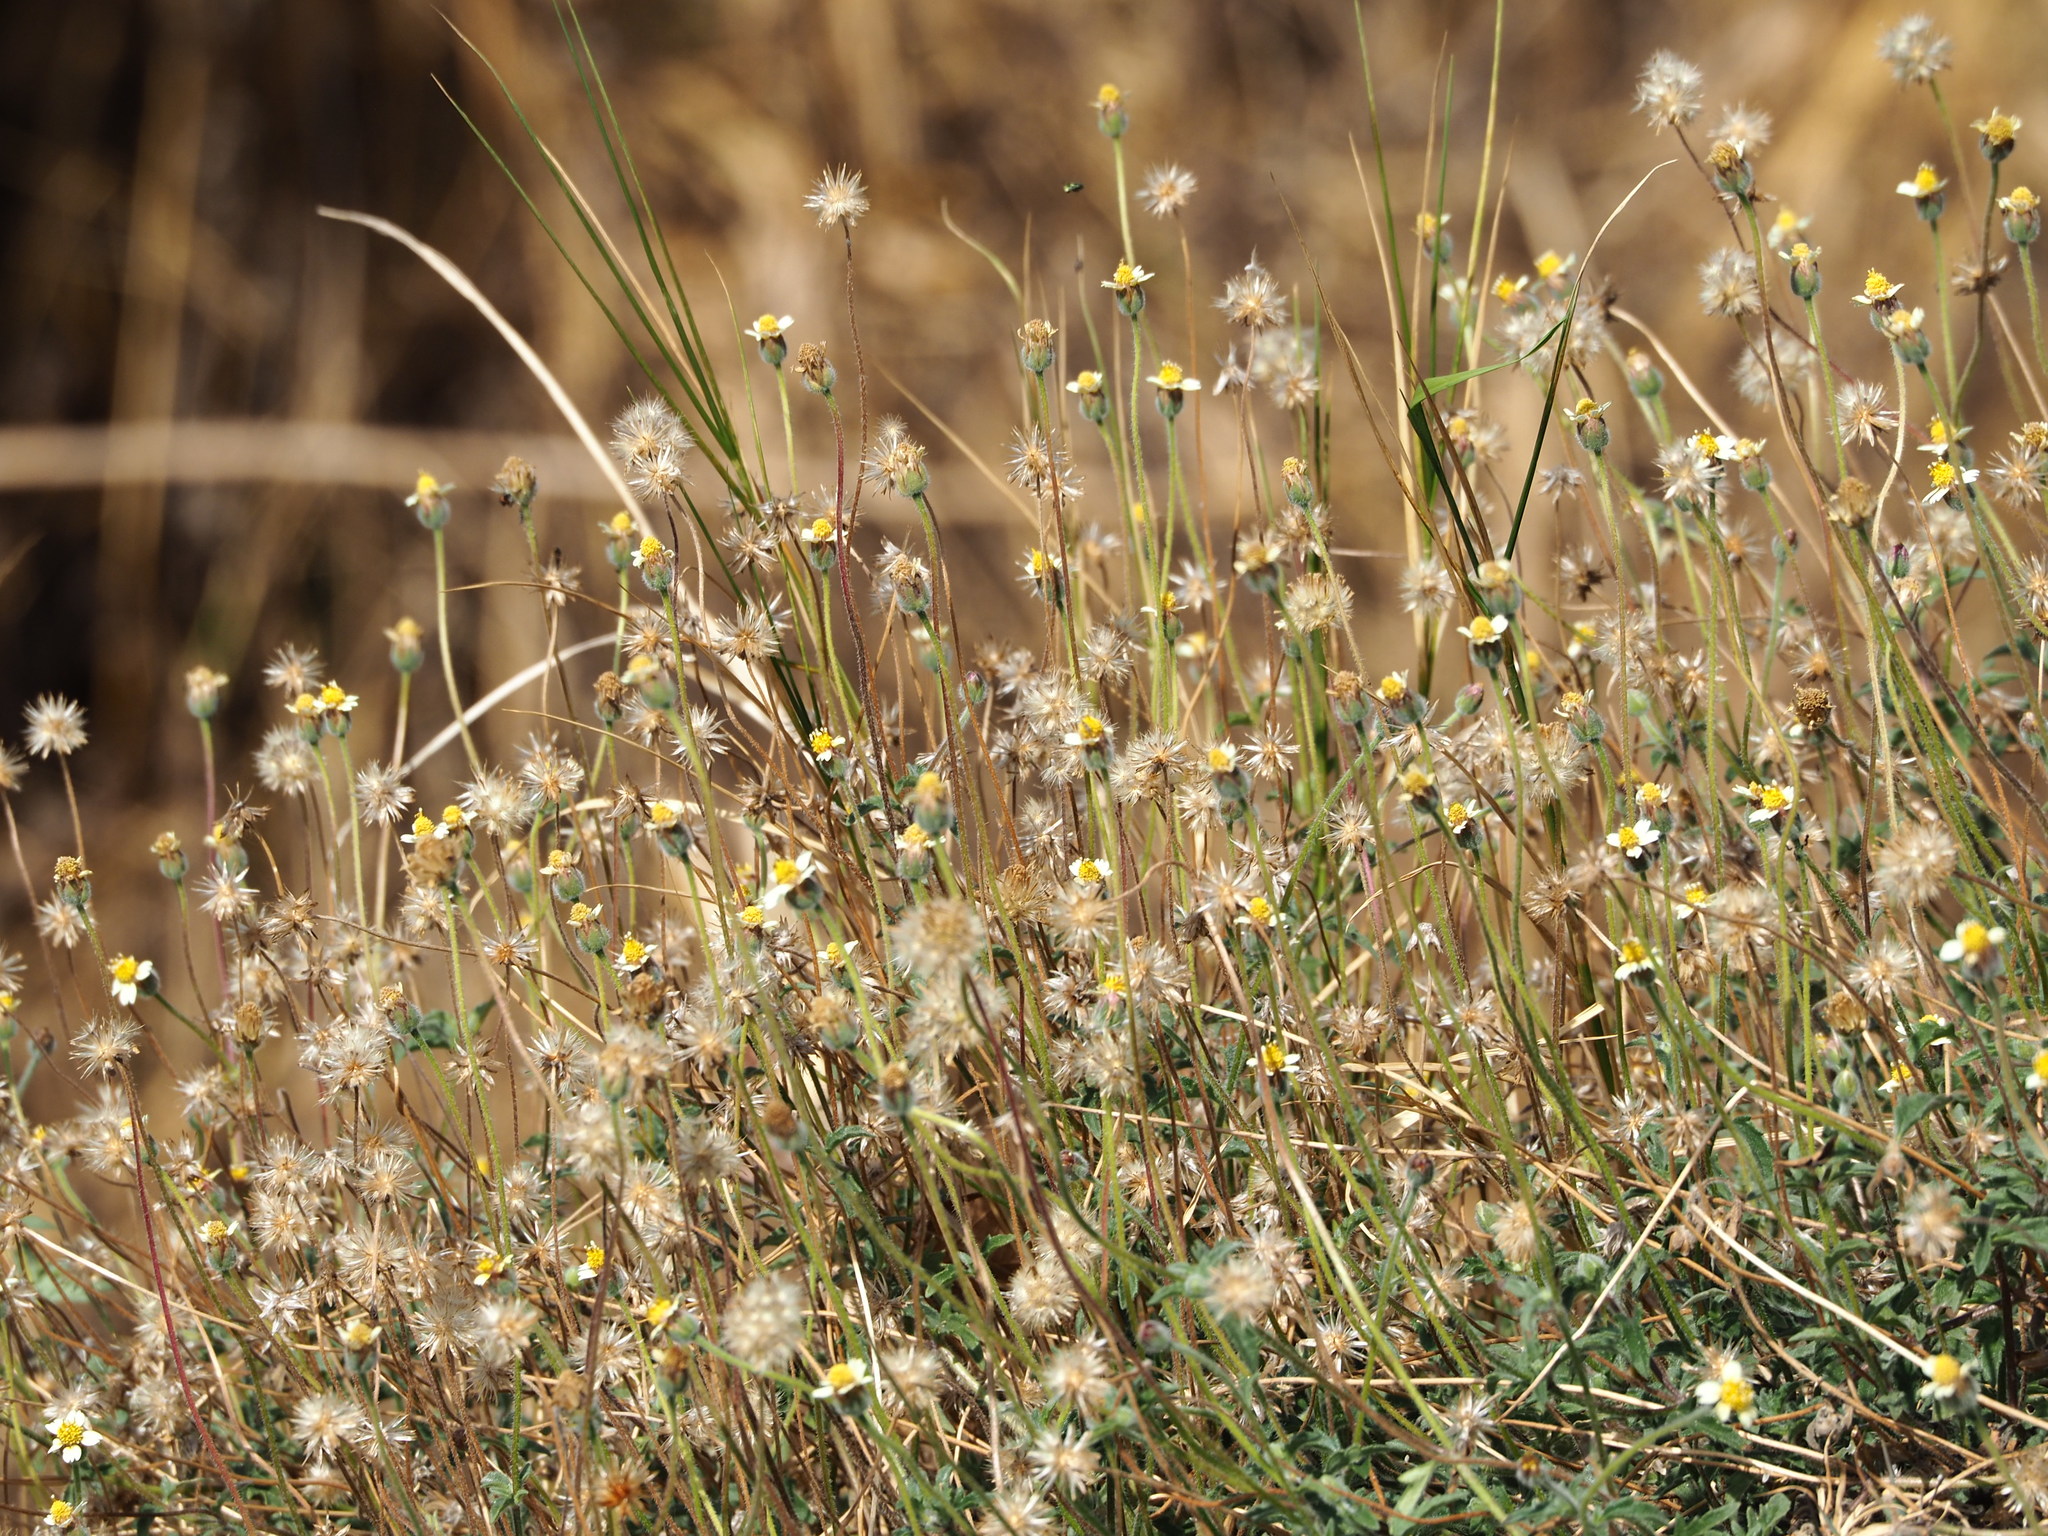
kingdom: Plantae
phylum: Tracheophyta
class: Magnoliopsida
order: Asterales
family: Asteraceae
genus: Tridax
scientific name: Tridax procumbens
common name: Coatbuttons
